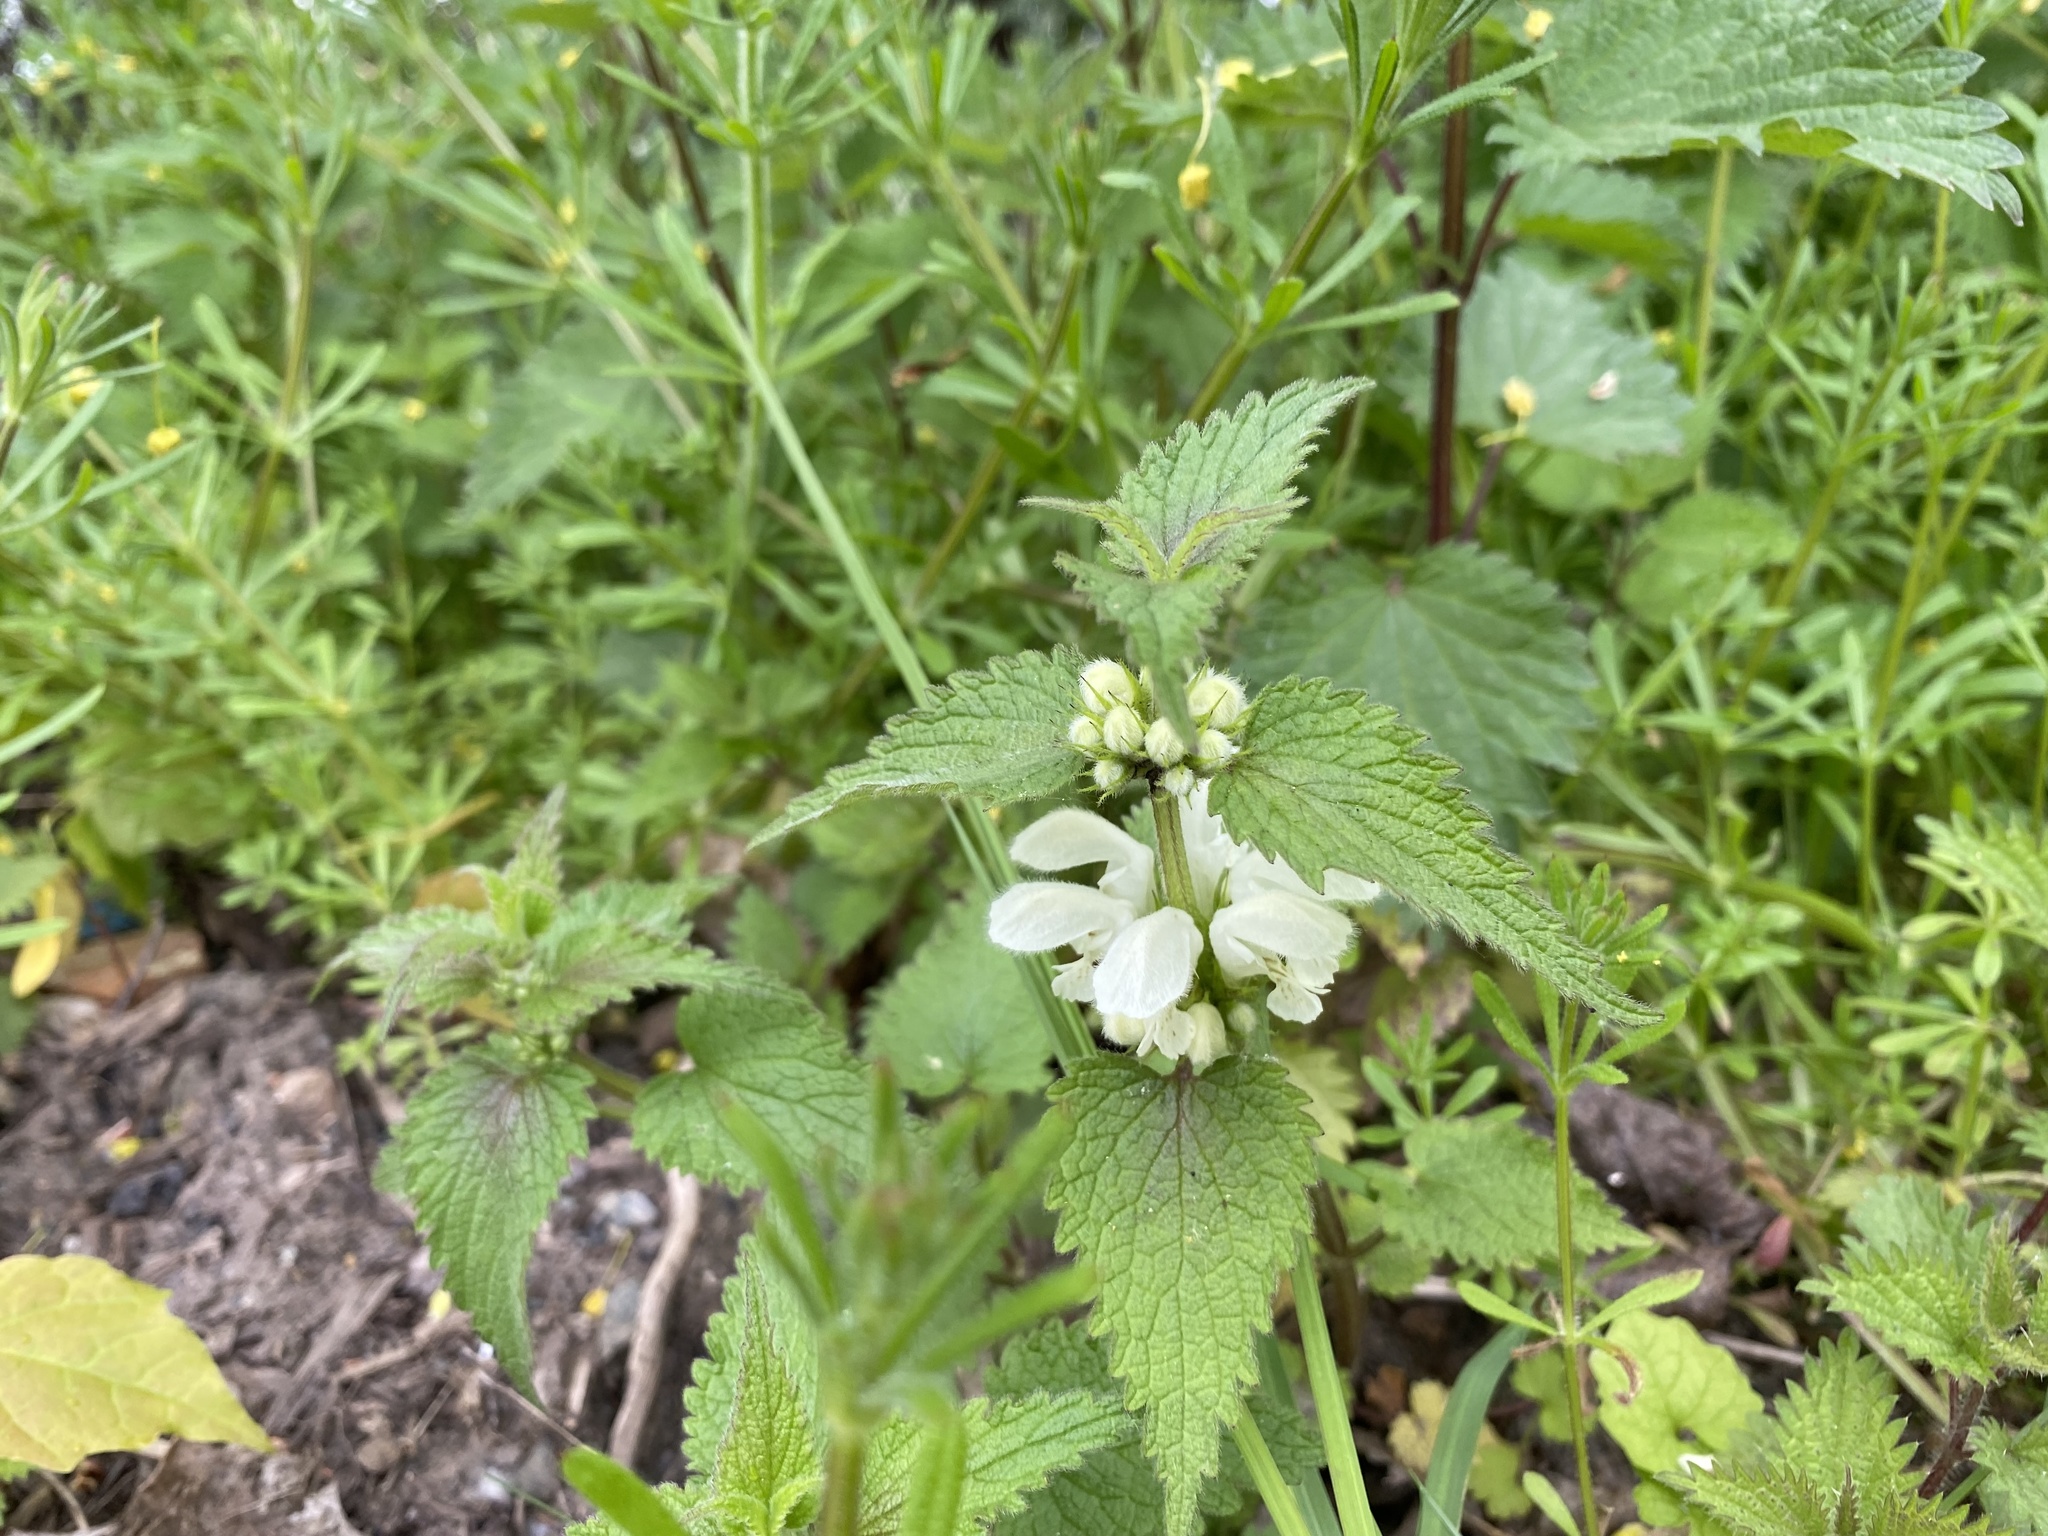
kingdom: Plantae
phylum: Tracheophyta
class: Magnoliopsida
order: Lamiales
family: Lamiaceae
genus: Lamium
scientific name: Lamium album
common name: White dead-nettle
